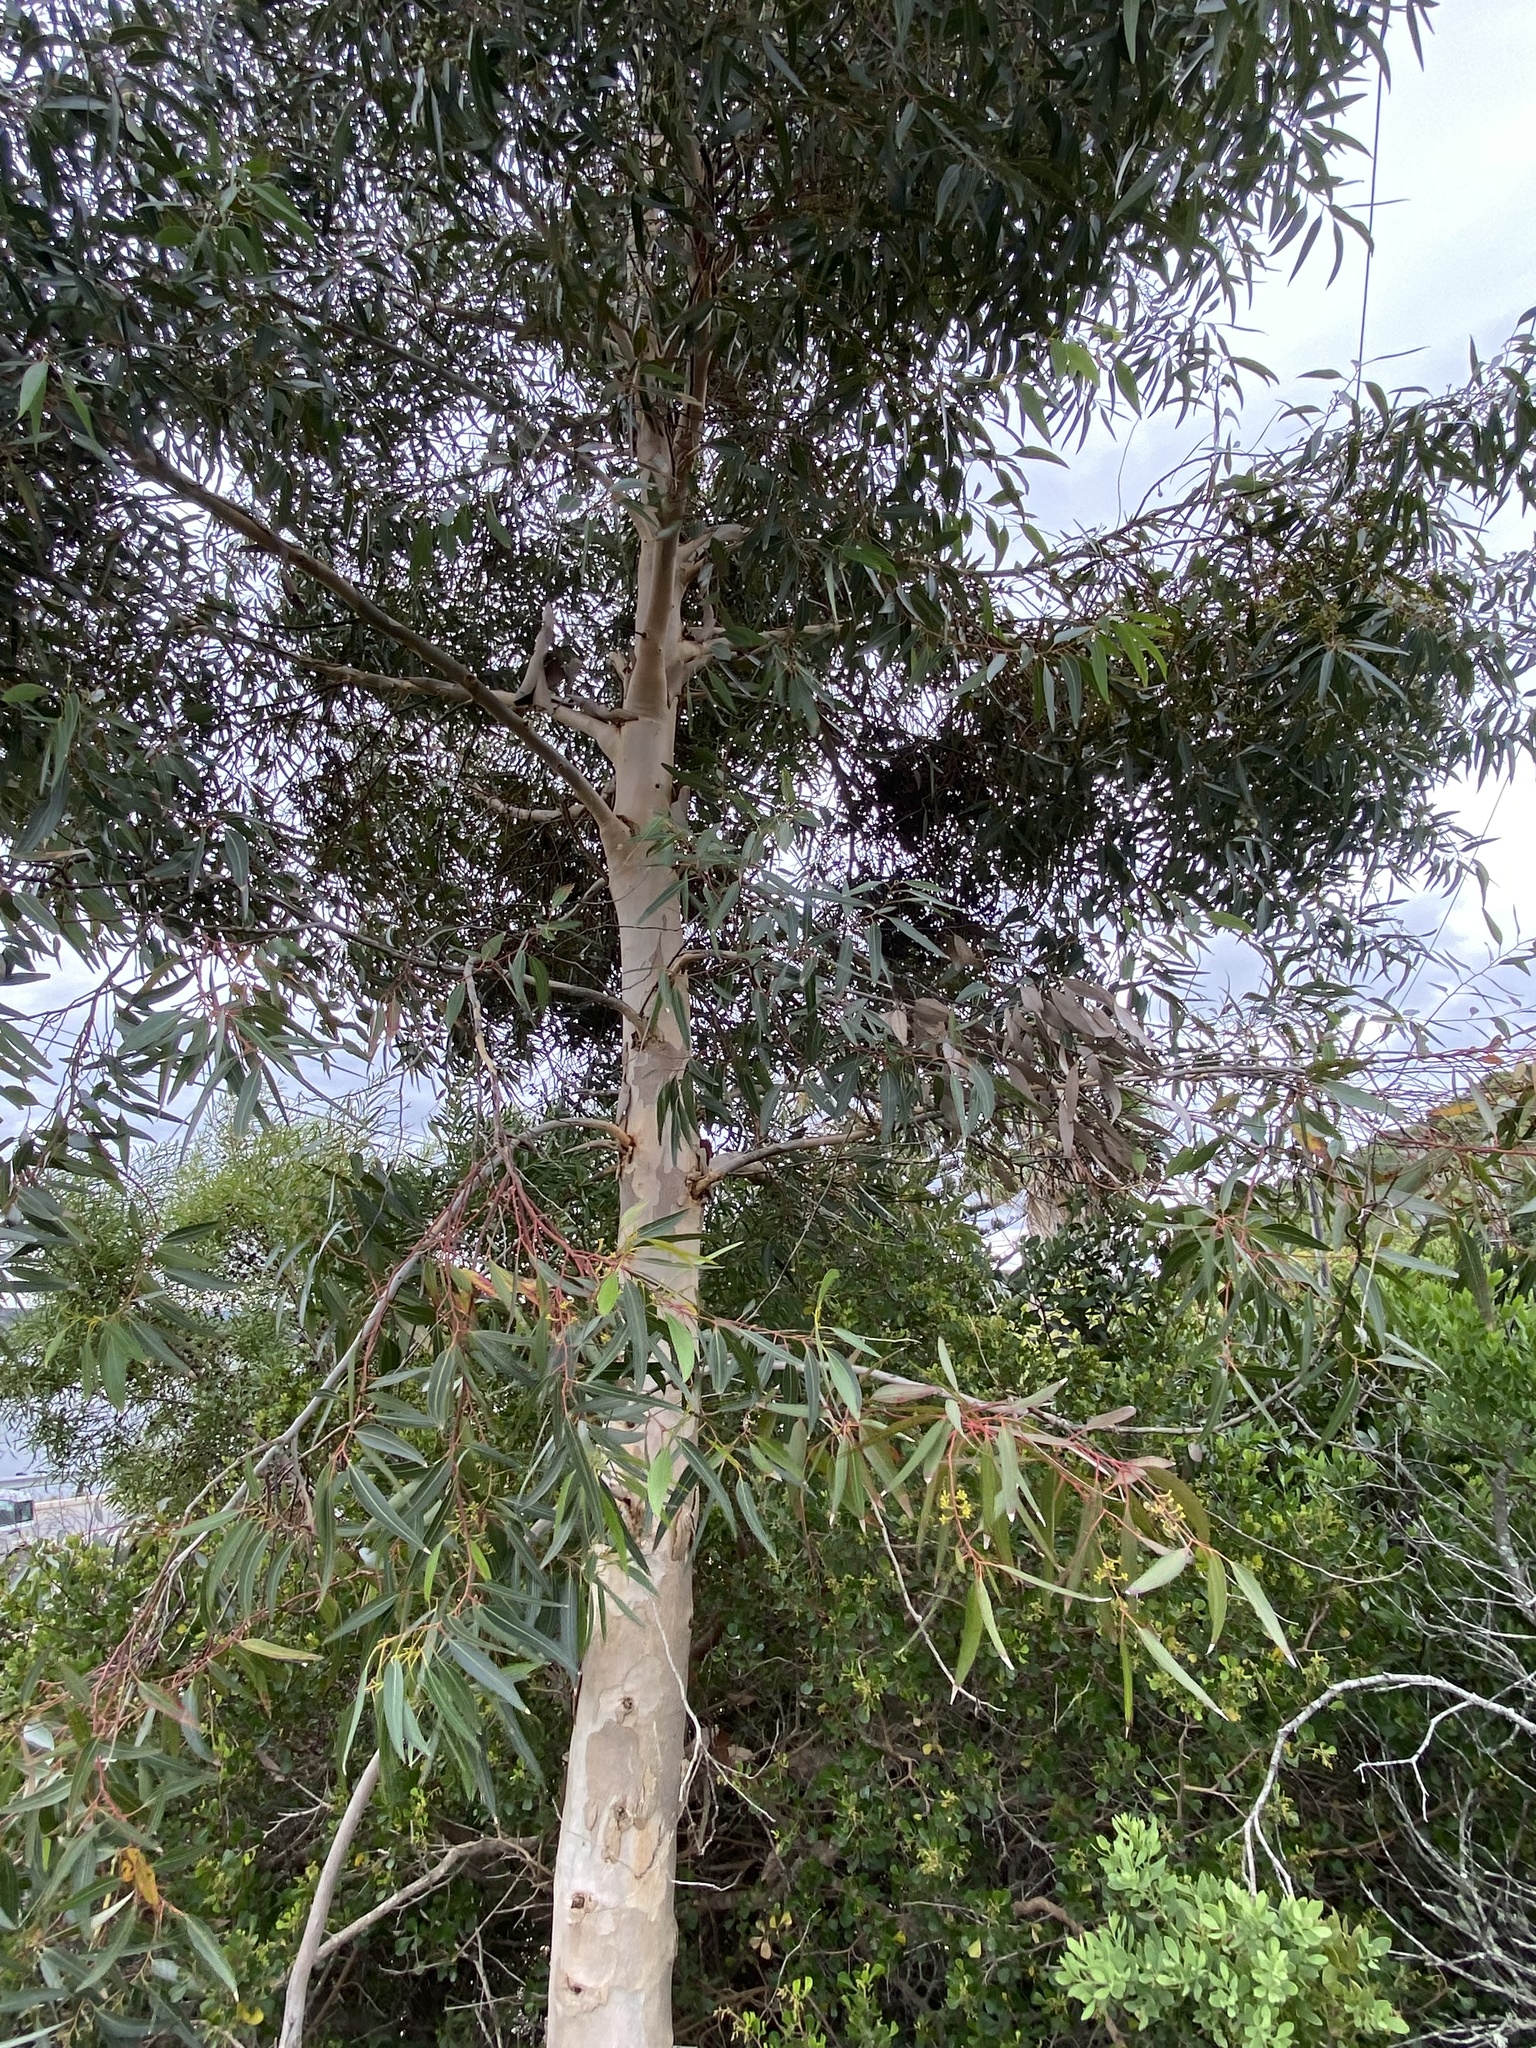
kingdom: Plantae
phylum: Tracheophyta
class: Magnoliopsida
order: Myrtales
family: Myrtaceae
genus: Eucalyptus
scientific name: Eucalyptus cladocalyx
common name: Sugargum
